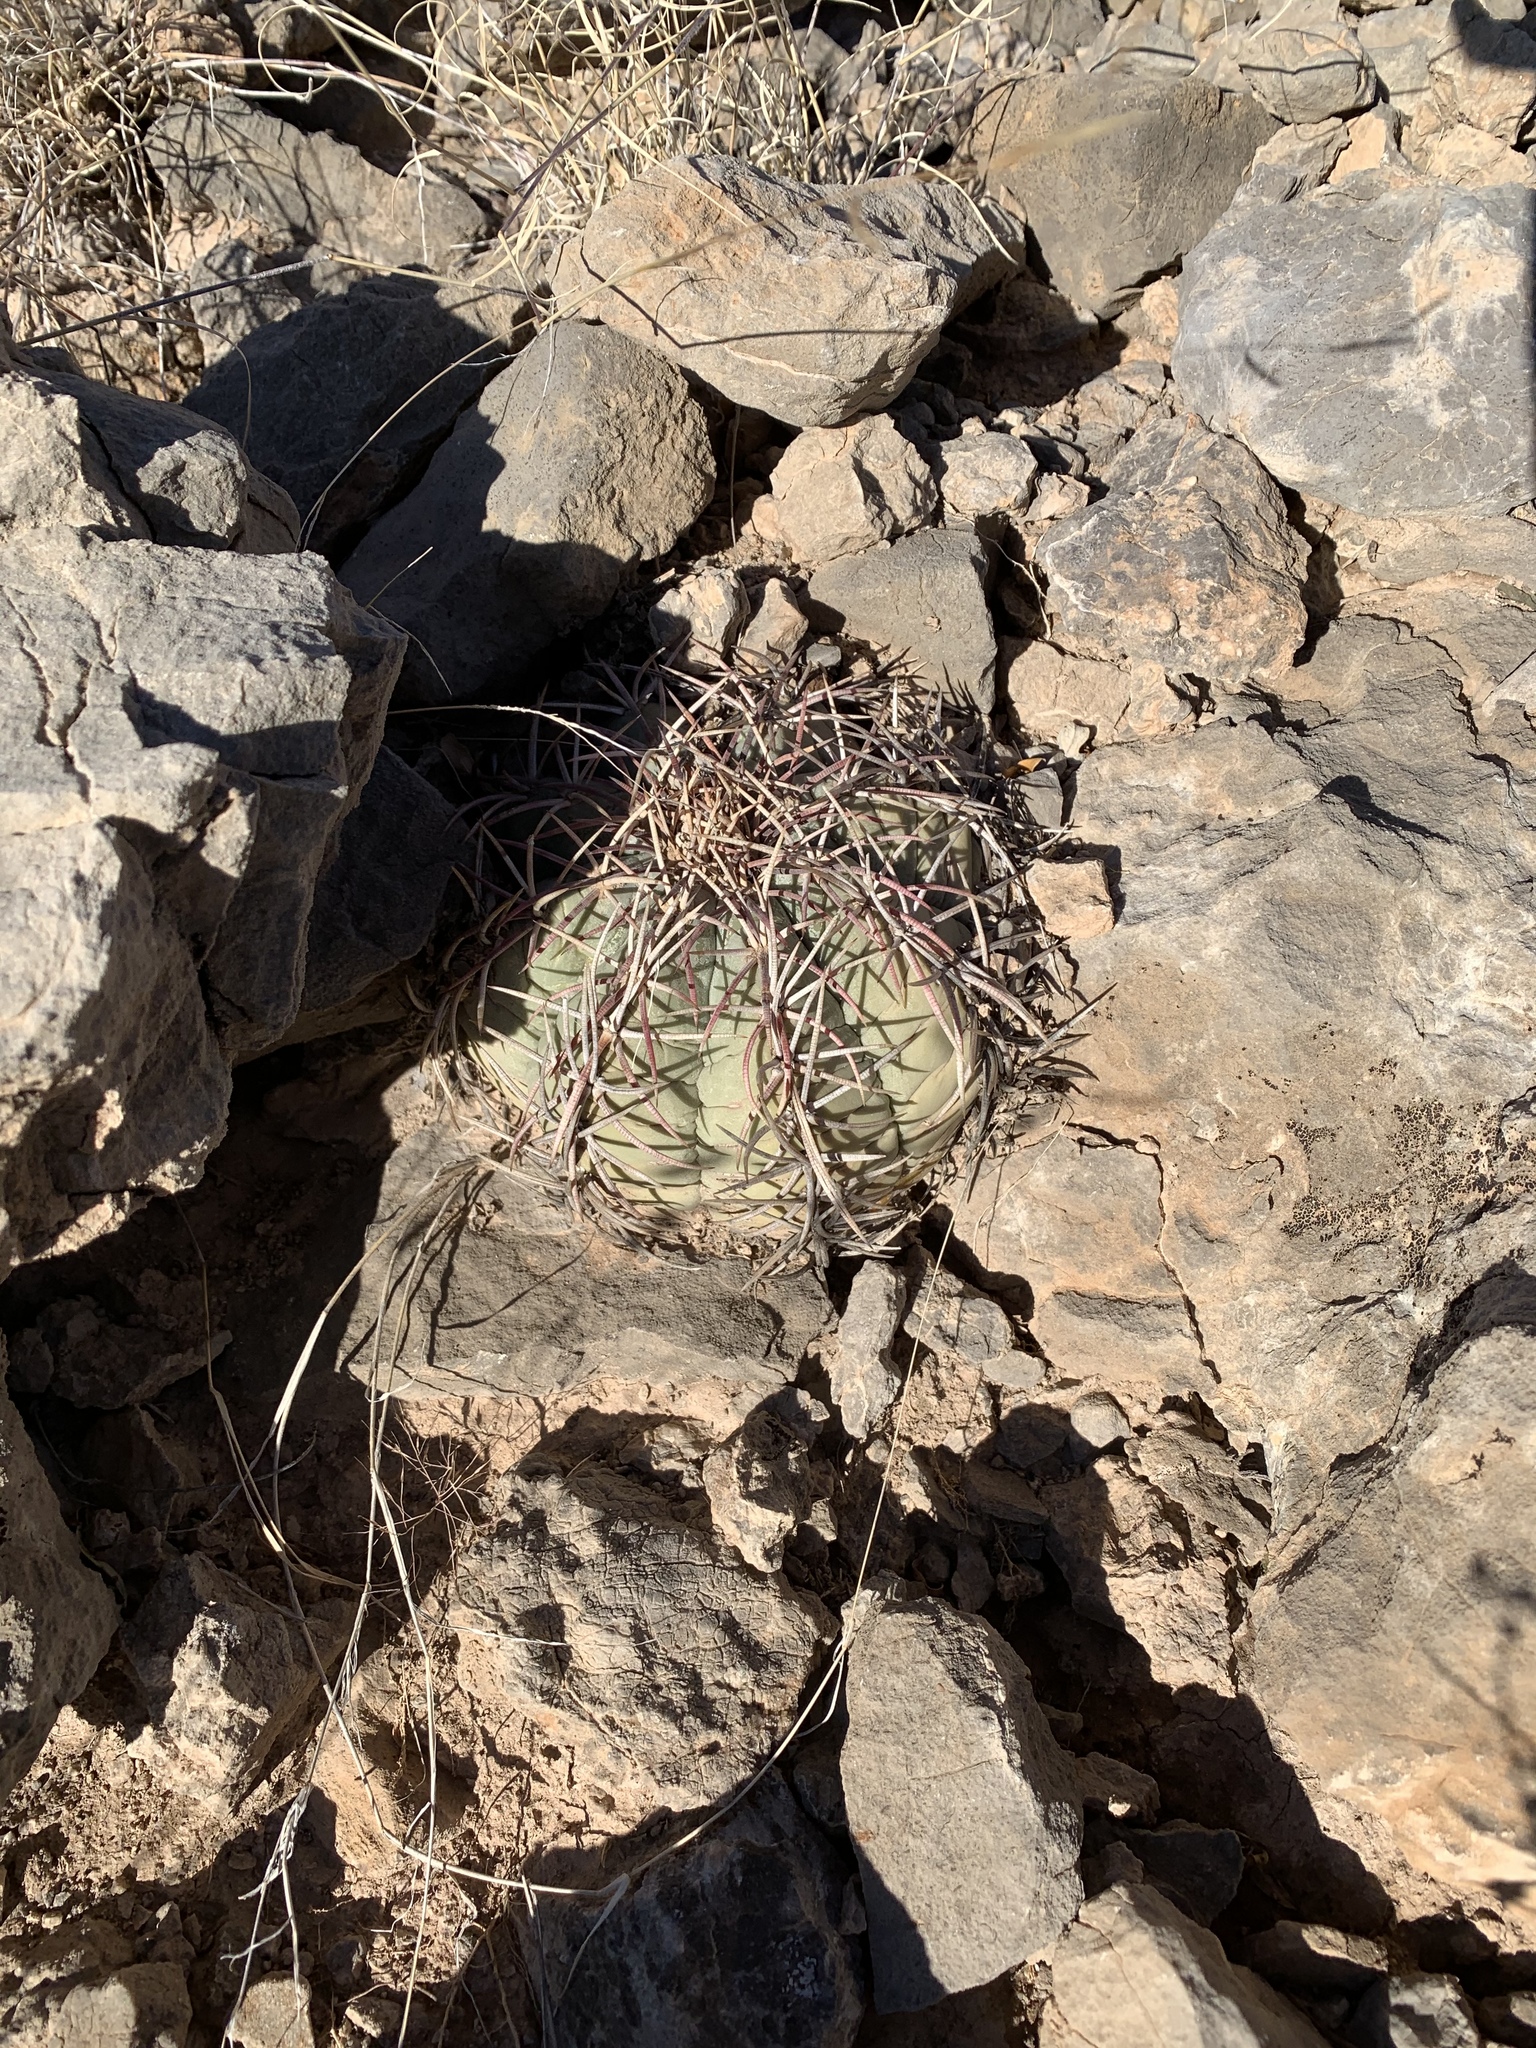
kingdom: Plantae
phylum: Tracheophyta
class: Magnoliopsida
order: Caryophyllales
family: Cactaceae
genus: Echinocactus
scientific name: Echinocactus horizonthalonius
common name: Devilshead
